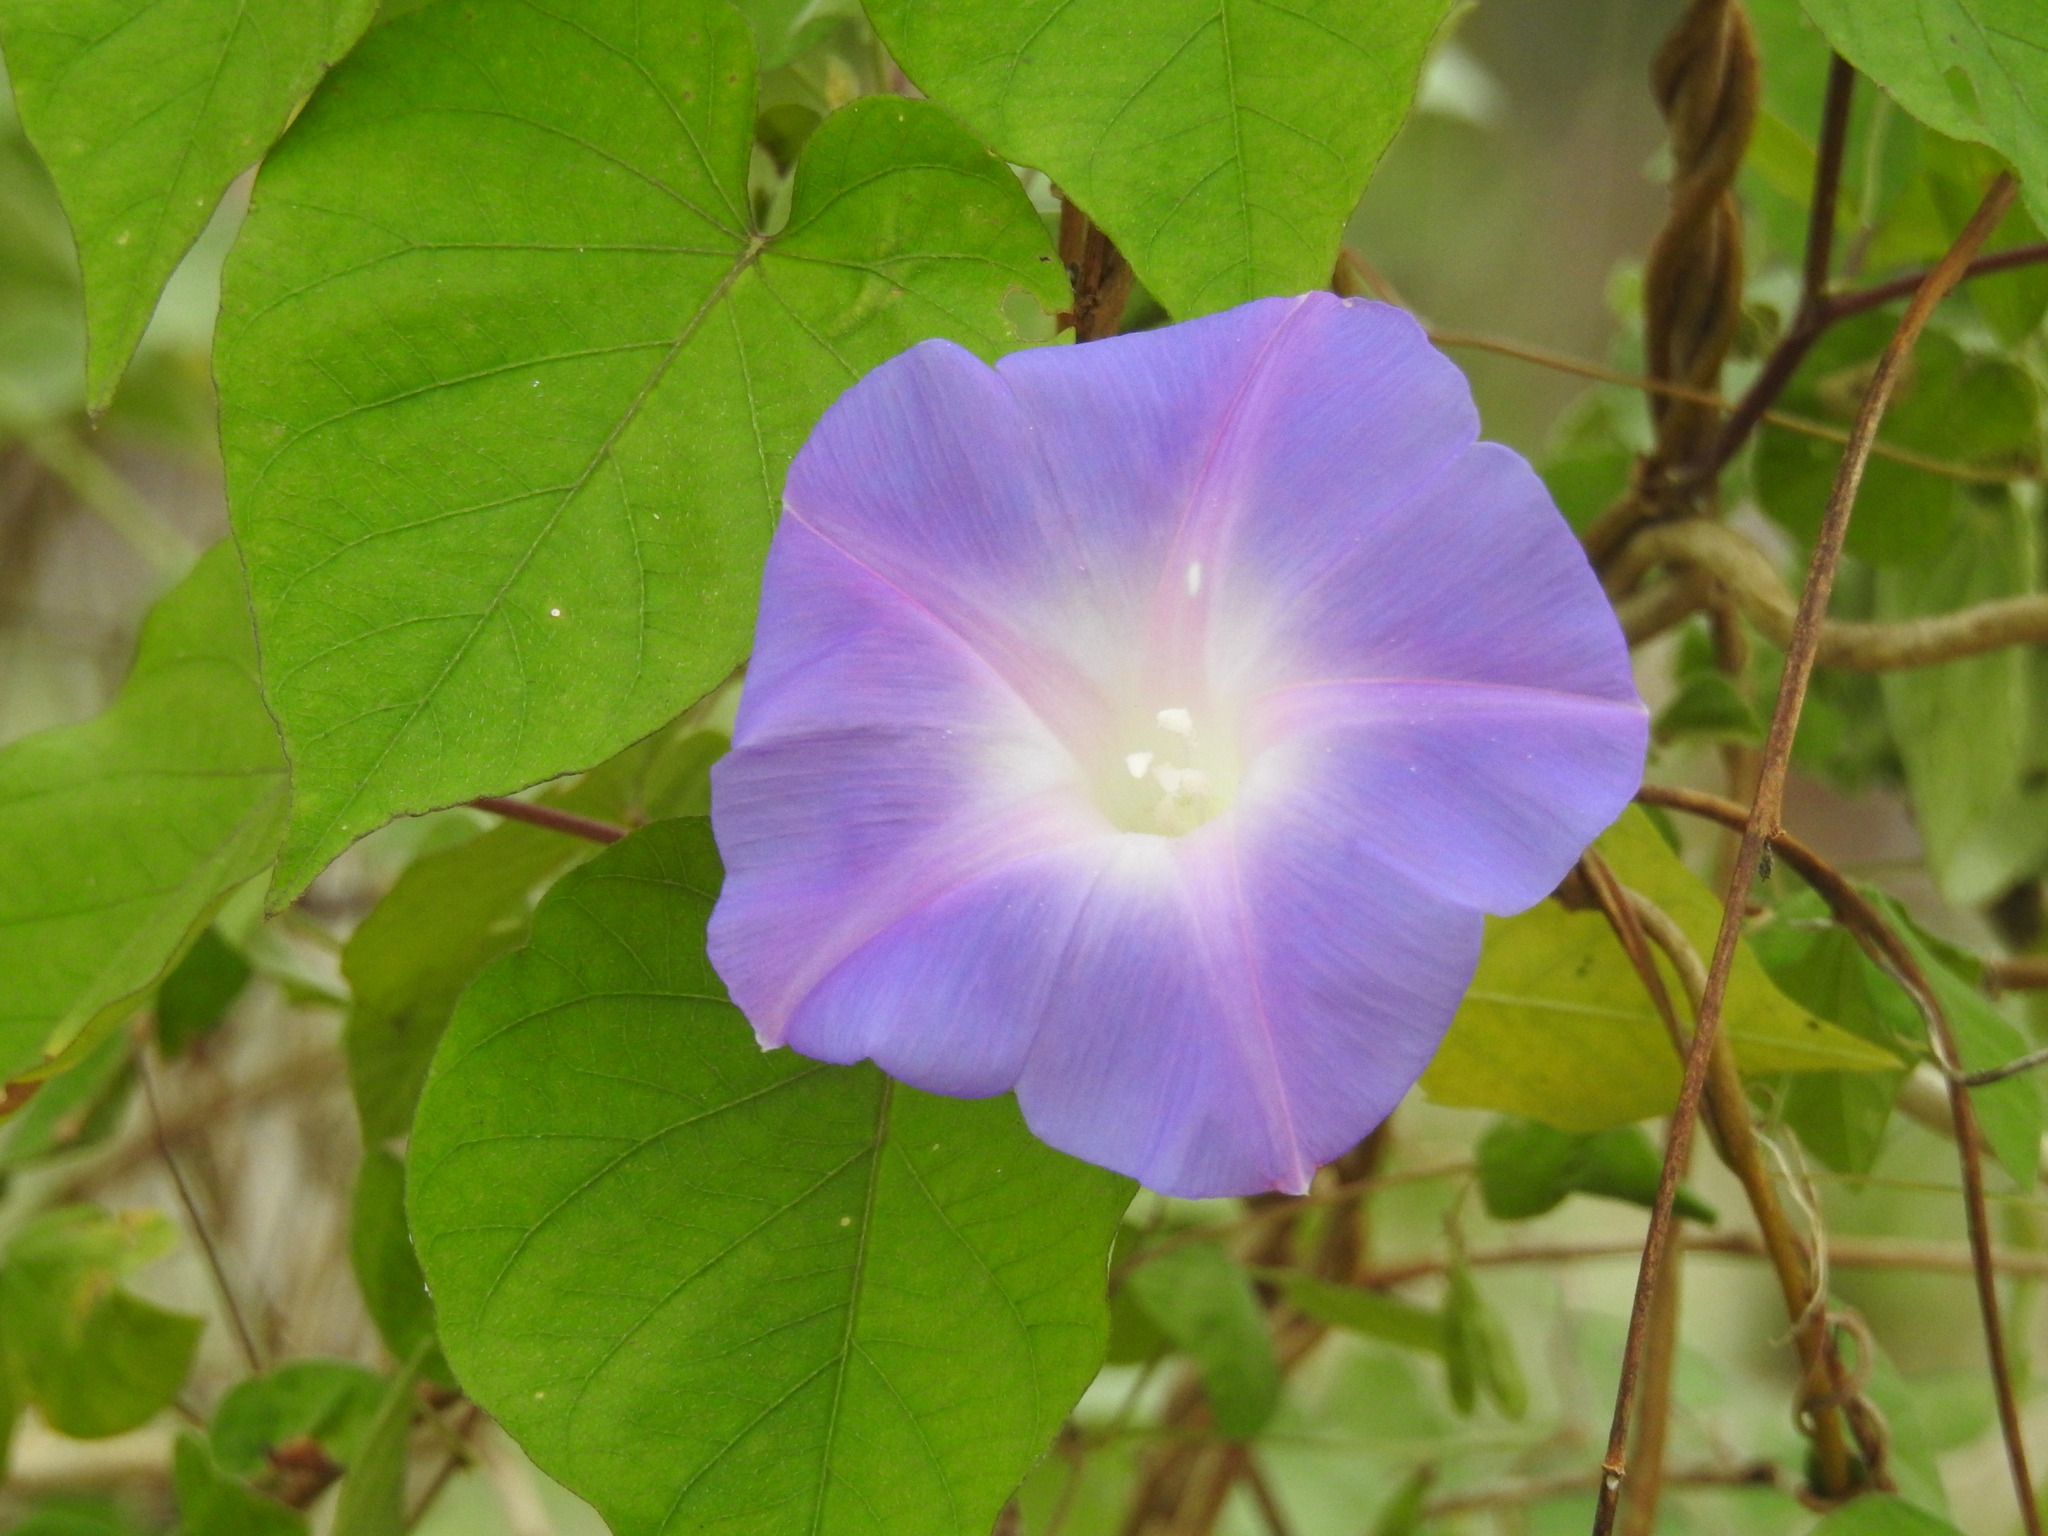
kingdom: Plantae
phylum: Tracheophyta
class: Magnoliopsida
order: Solanales
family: Convolvulaceae
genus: Ipomoea
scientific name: Ipomoea indica
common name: Blue dawnflower
